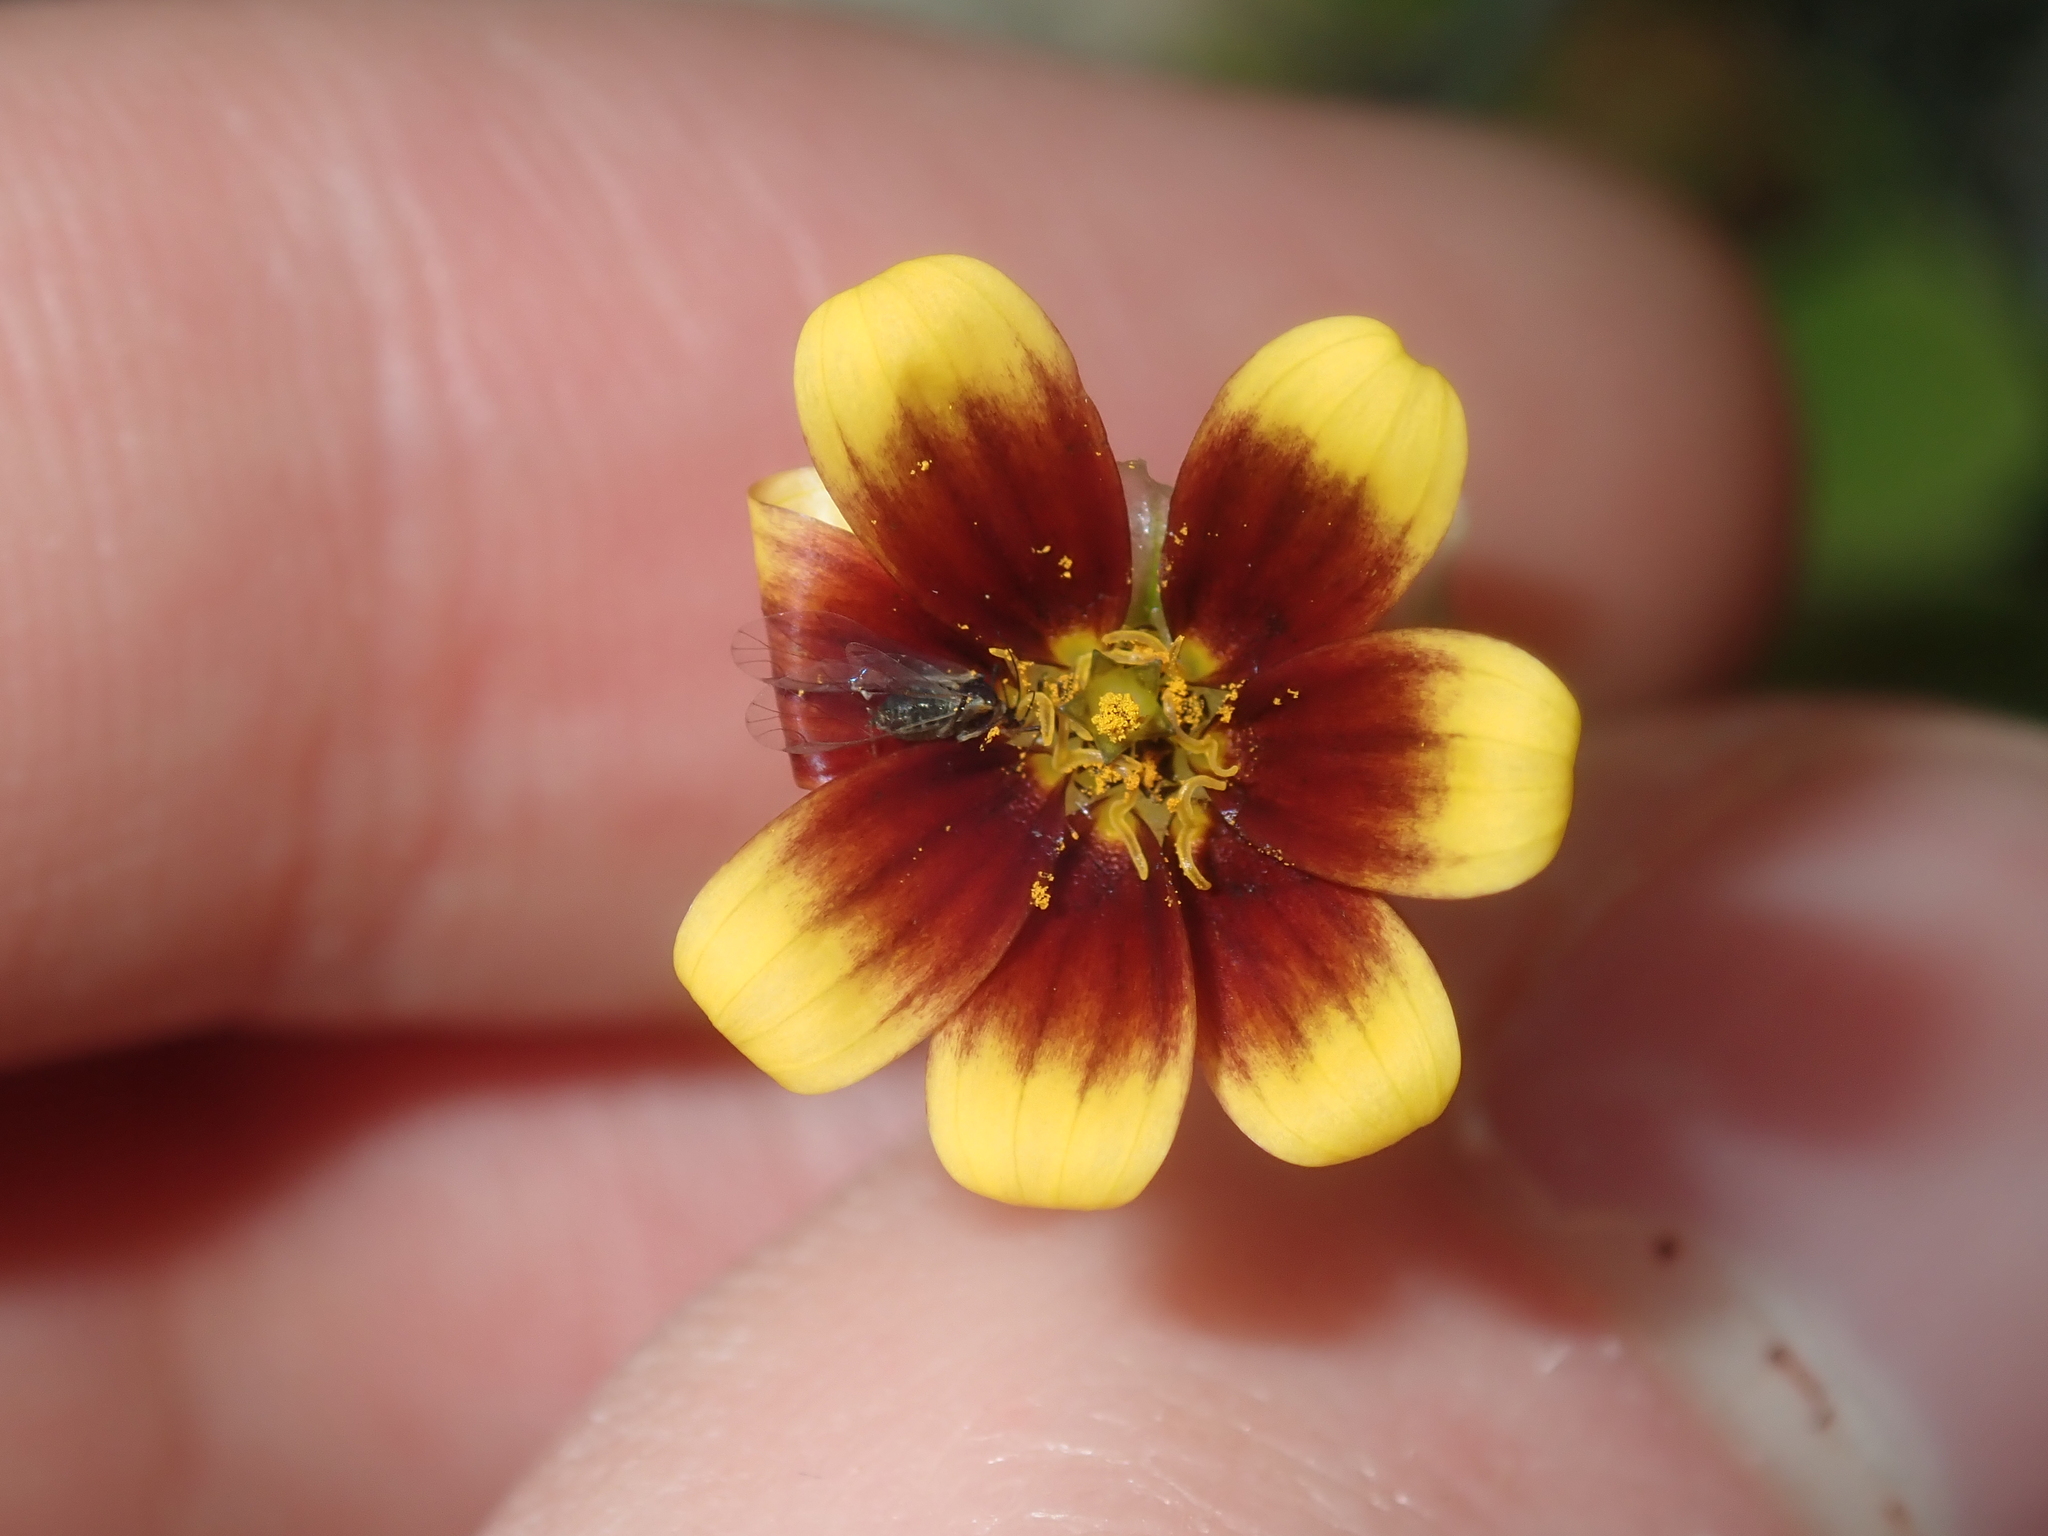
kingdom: Plantae
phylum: Tracheophyta
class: Magnoliopsida
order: Asterales
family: Asteraceae
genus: Osteospermum
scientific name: Osteospermum monstrosum
